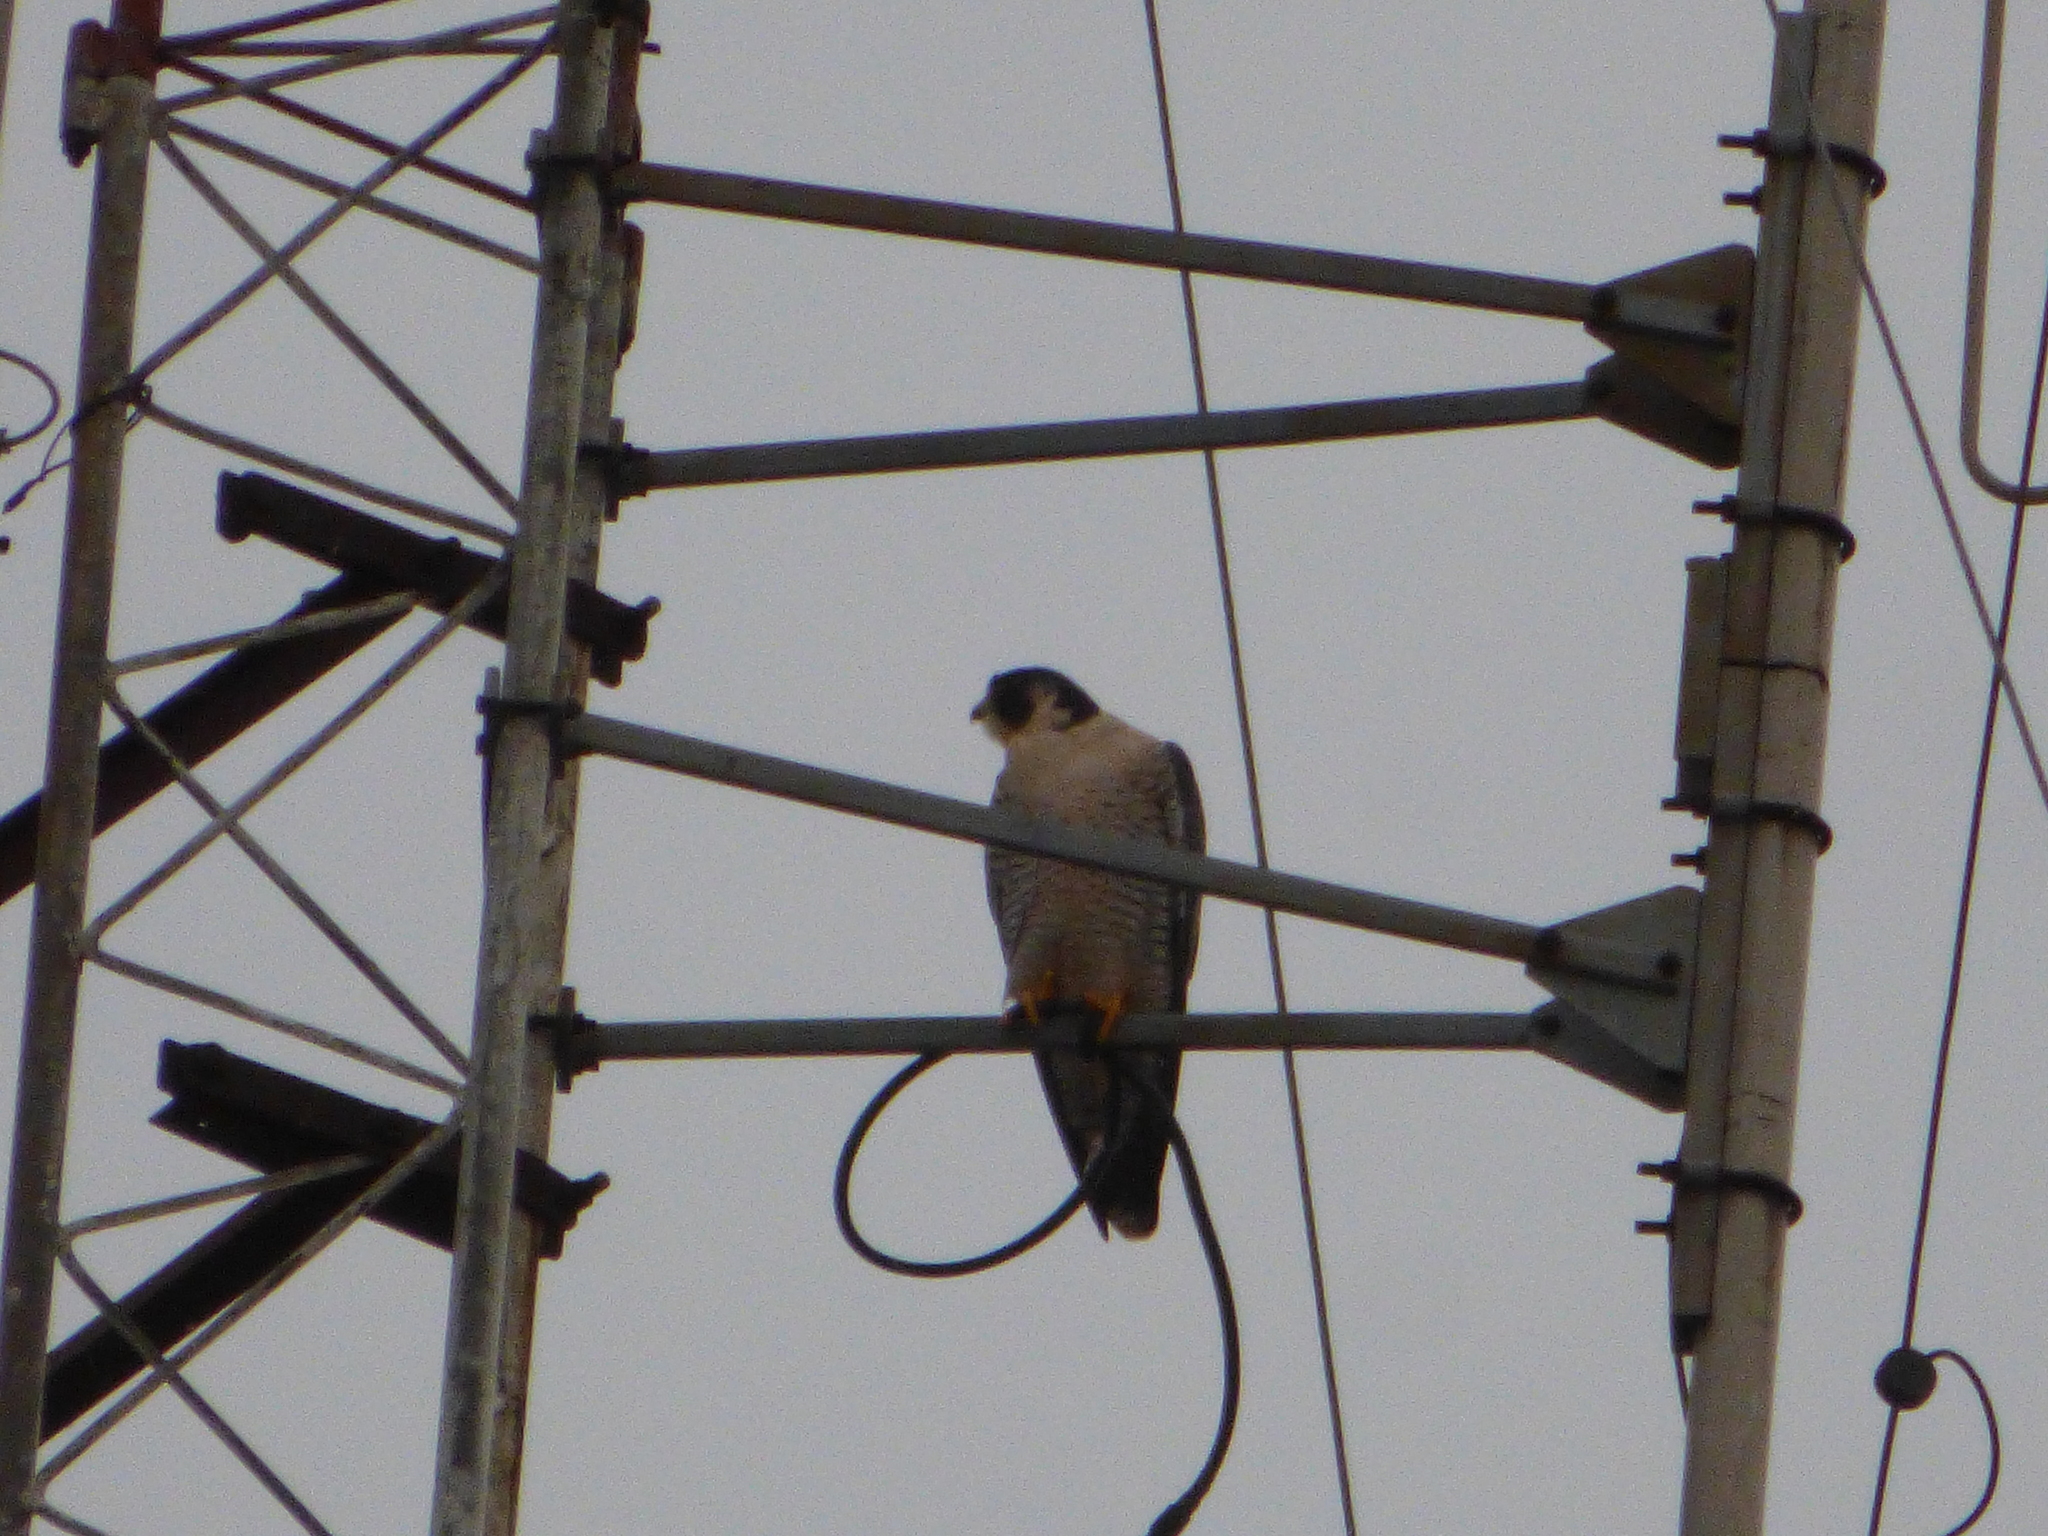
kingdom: Animalia
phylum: Chordata
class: Aves
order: Falconiformes
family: Falconidae
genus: Falco
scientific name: Falco peregrinus
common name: Peregrine falcon
